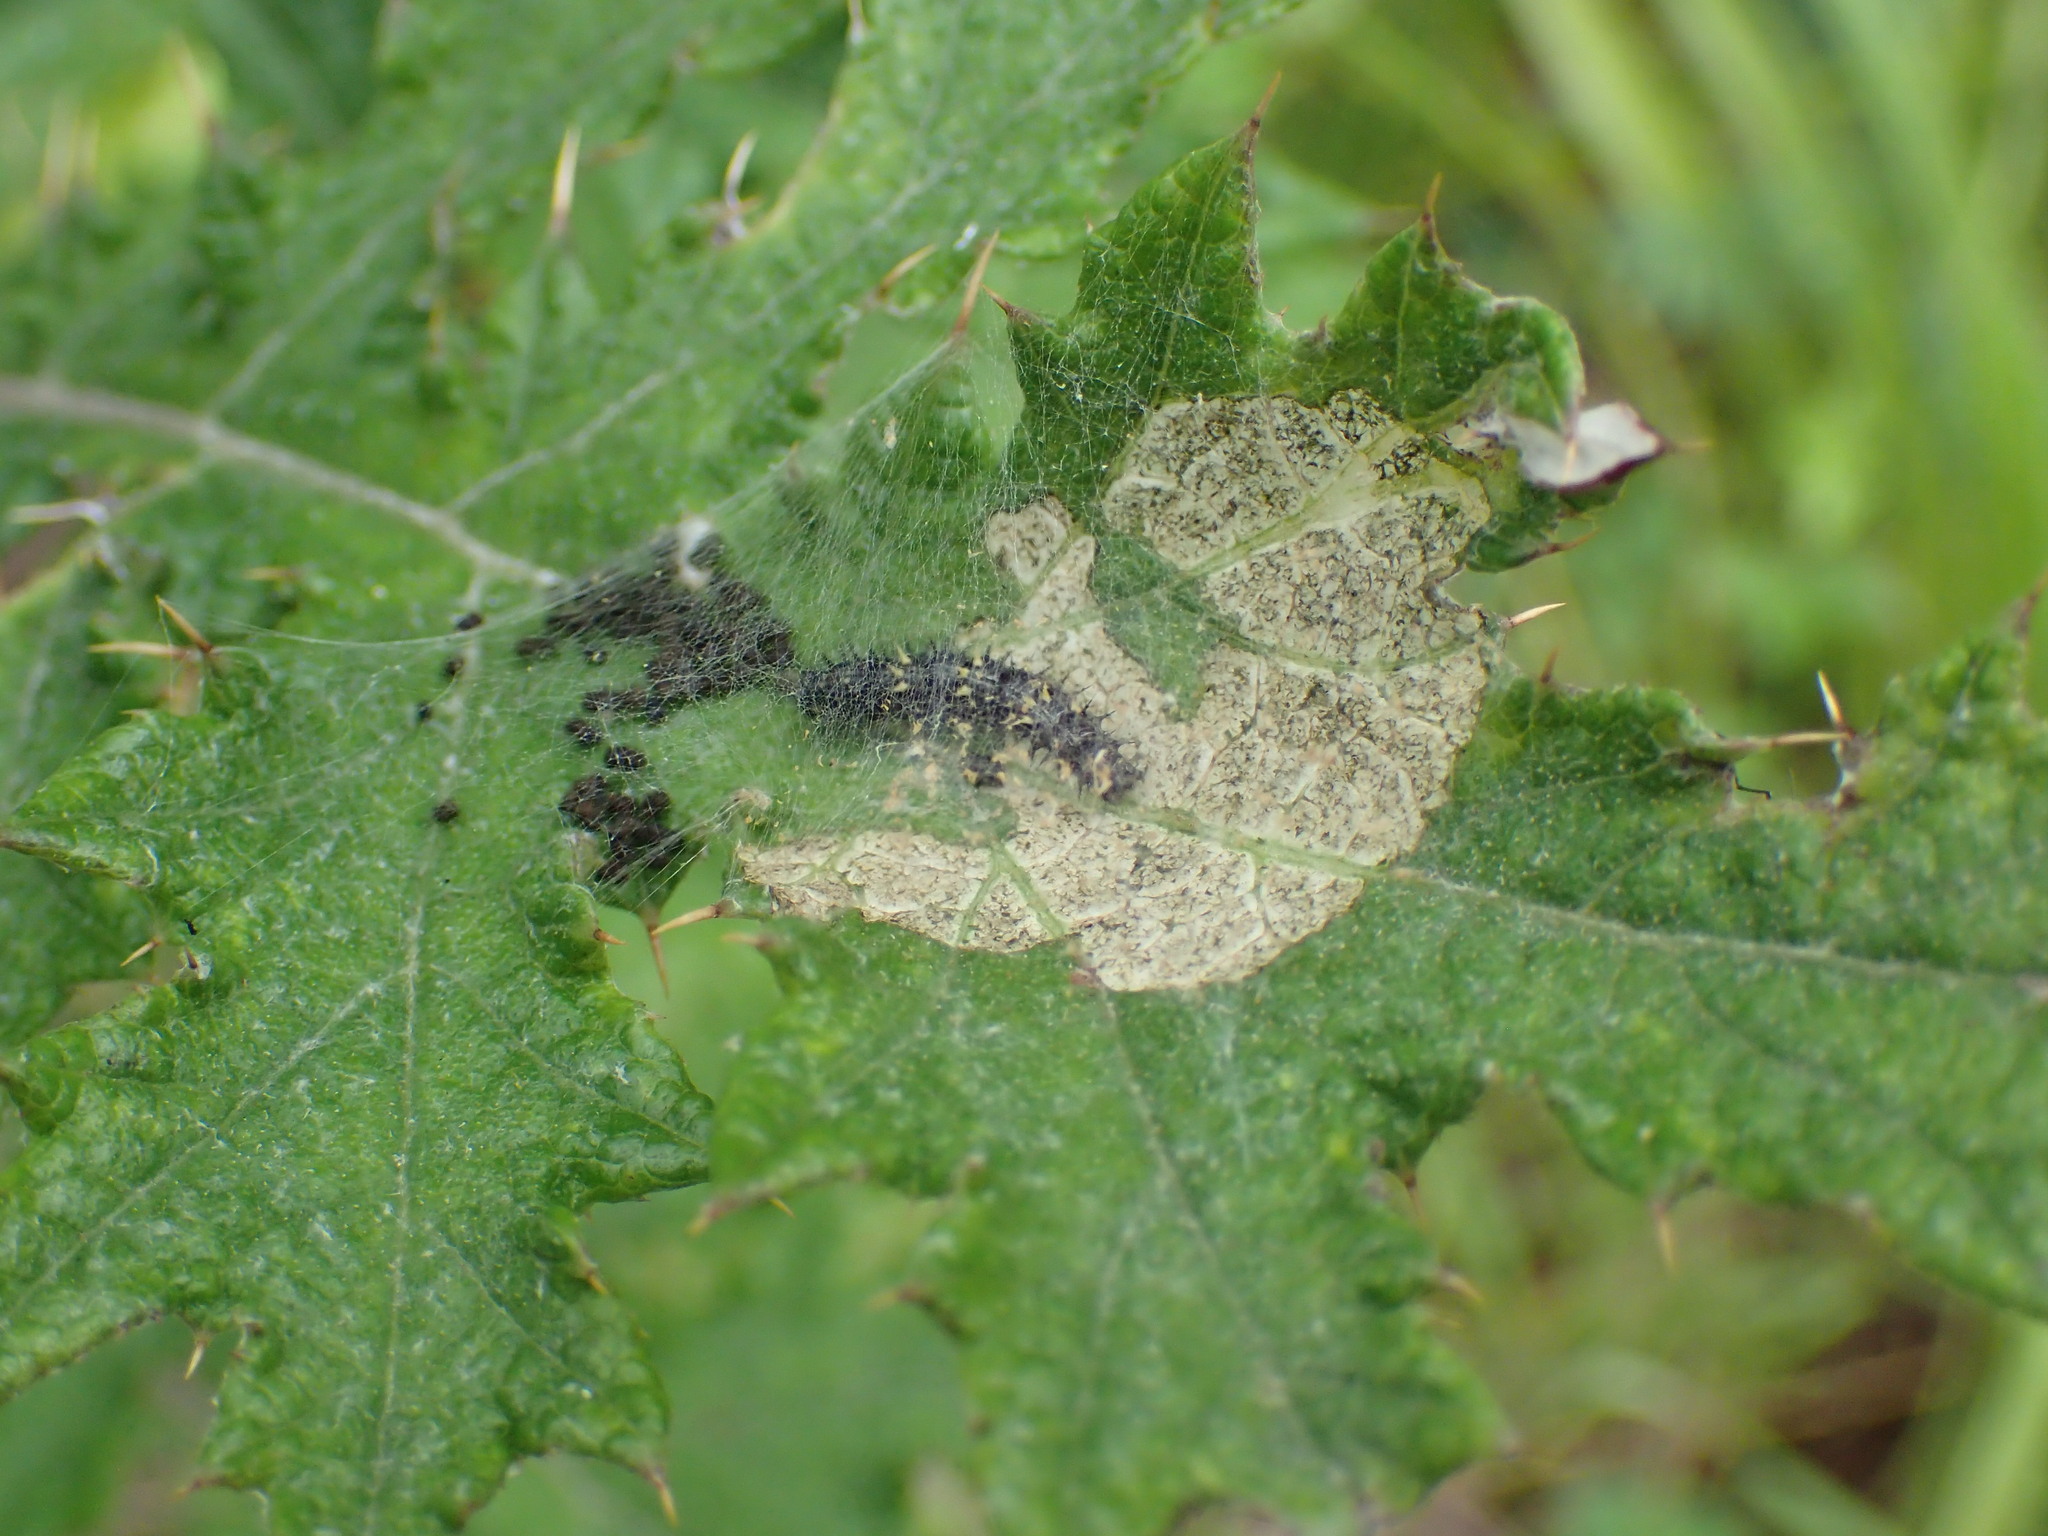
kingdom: Animalia
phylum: Arthropoda
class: Insecta
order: Lepidoptera
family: Nymphalidae
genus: Vanessa
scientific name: Vanessa cardui
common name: Painted lady
